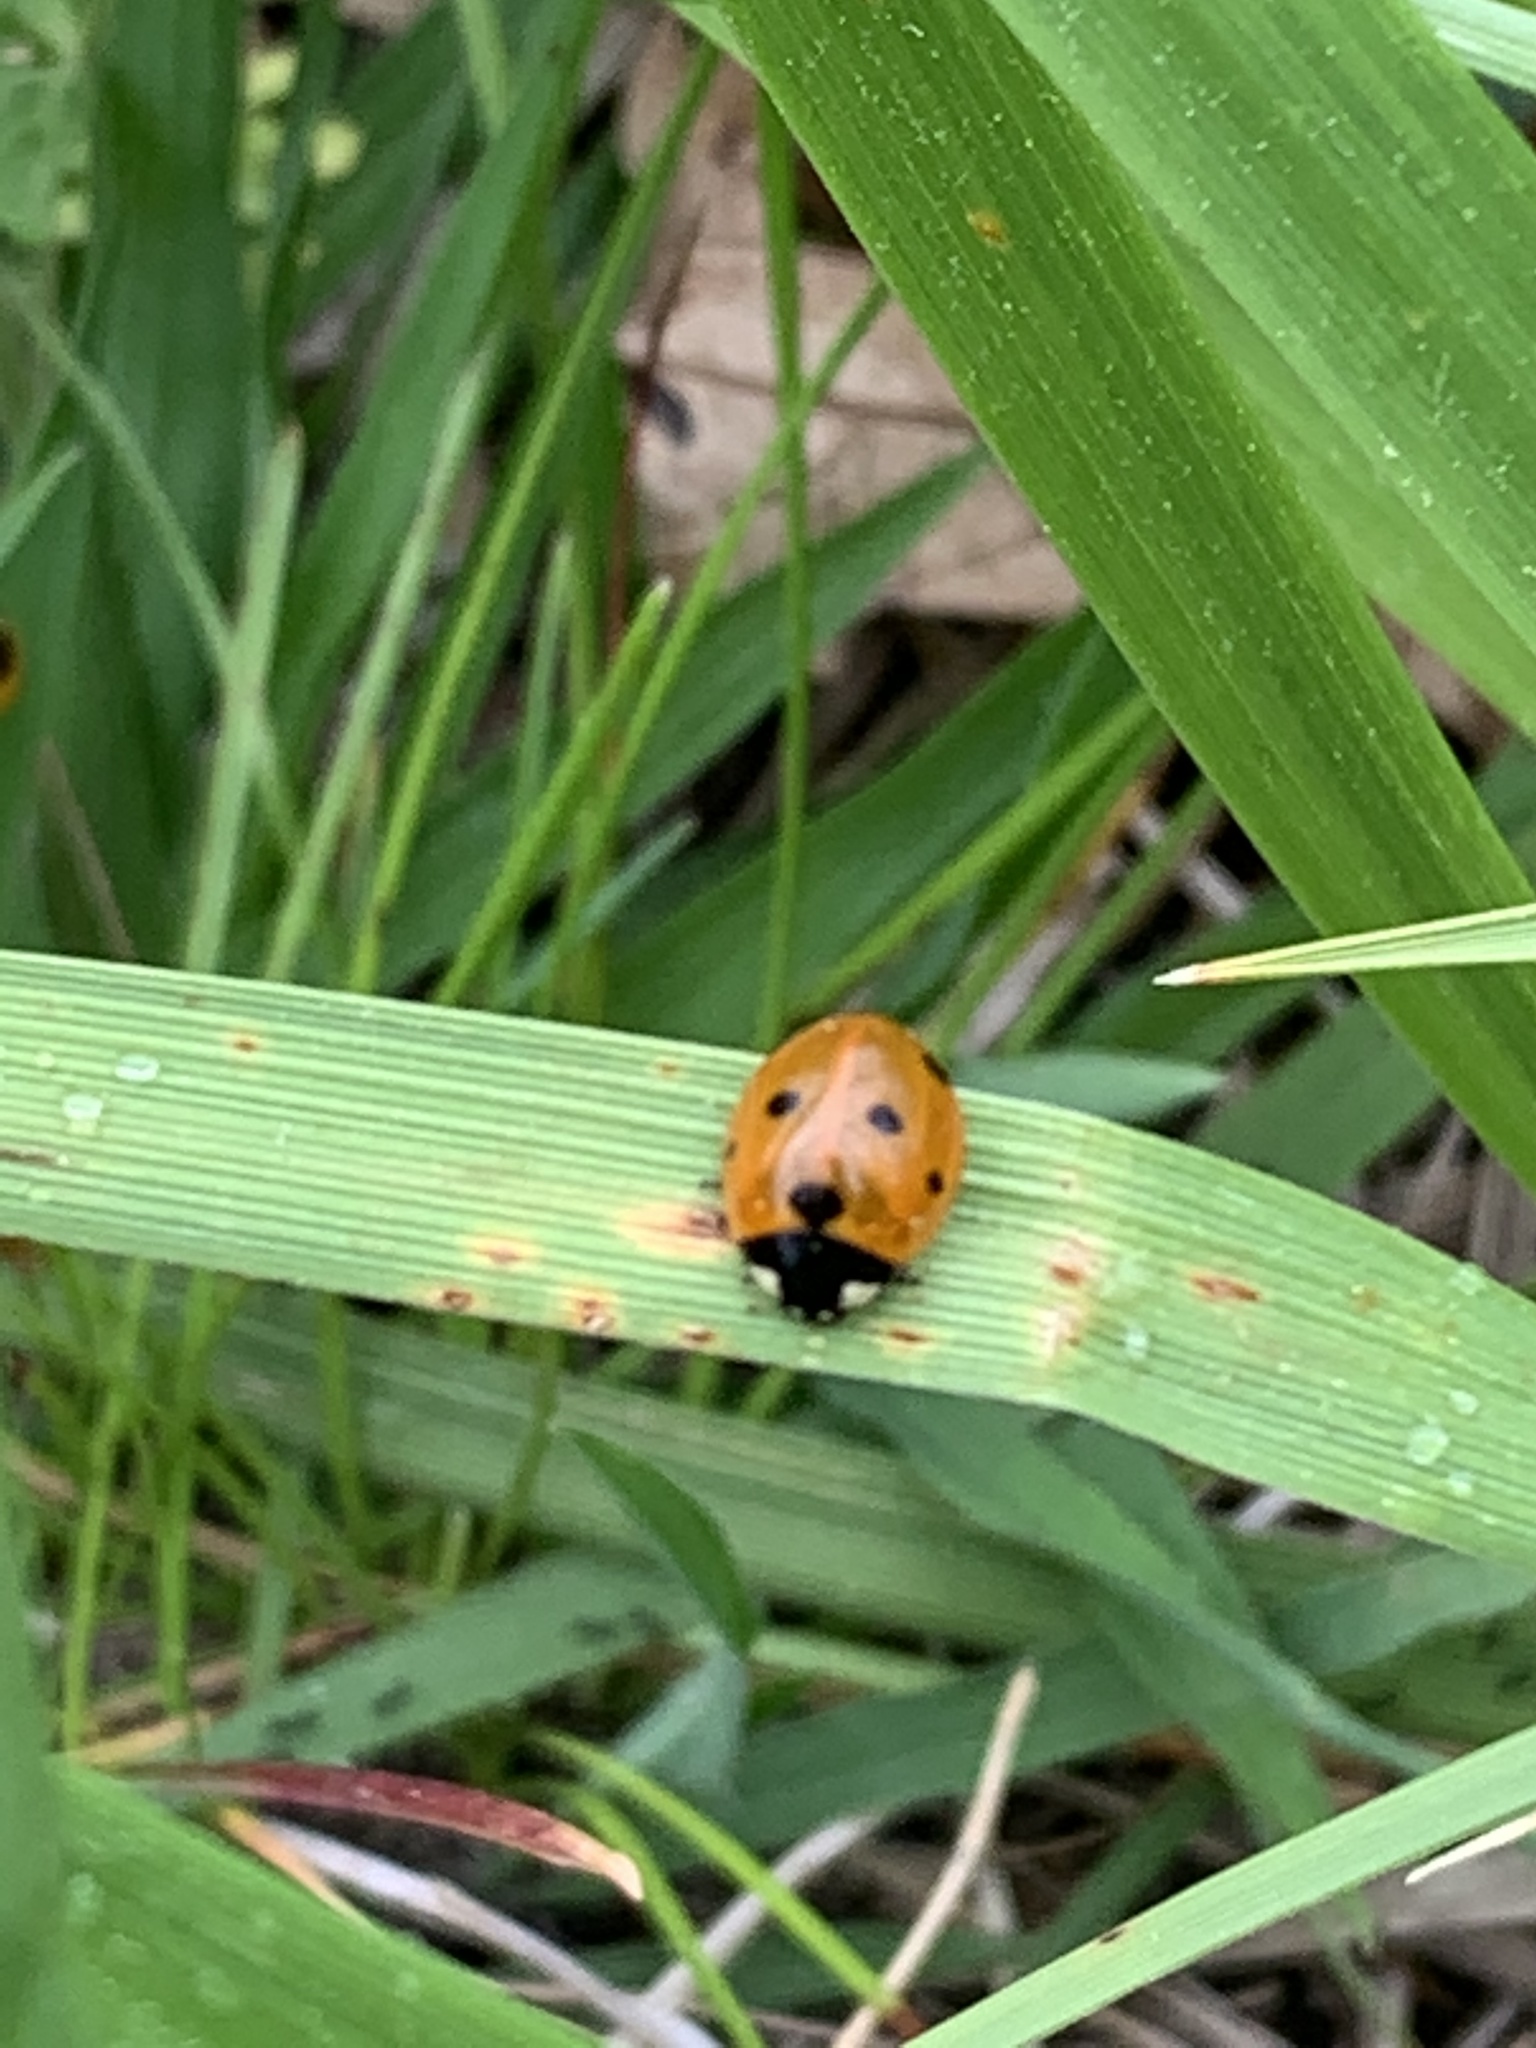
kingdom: Animalia
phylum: Arthropoda
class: Insecta
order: Coleoptera
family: Coccinellidae
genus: Coccinella
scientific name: Coccinella septempunctata
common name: Sevenspotted lady beetle
